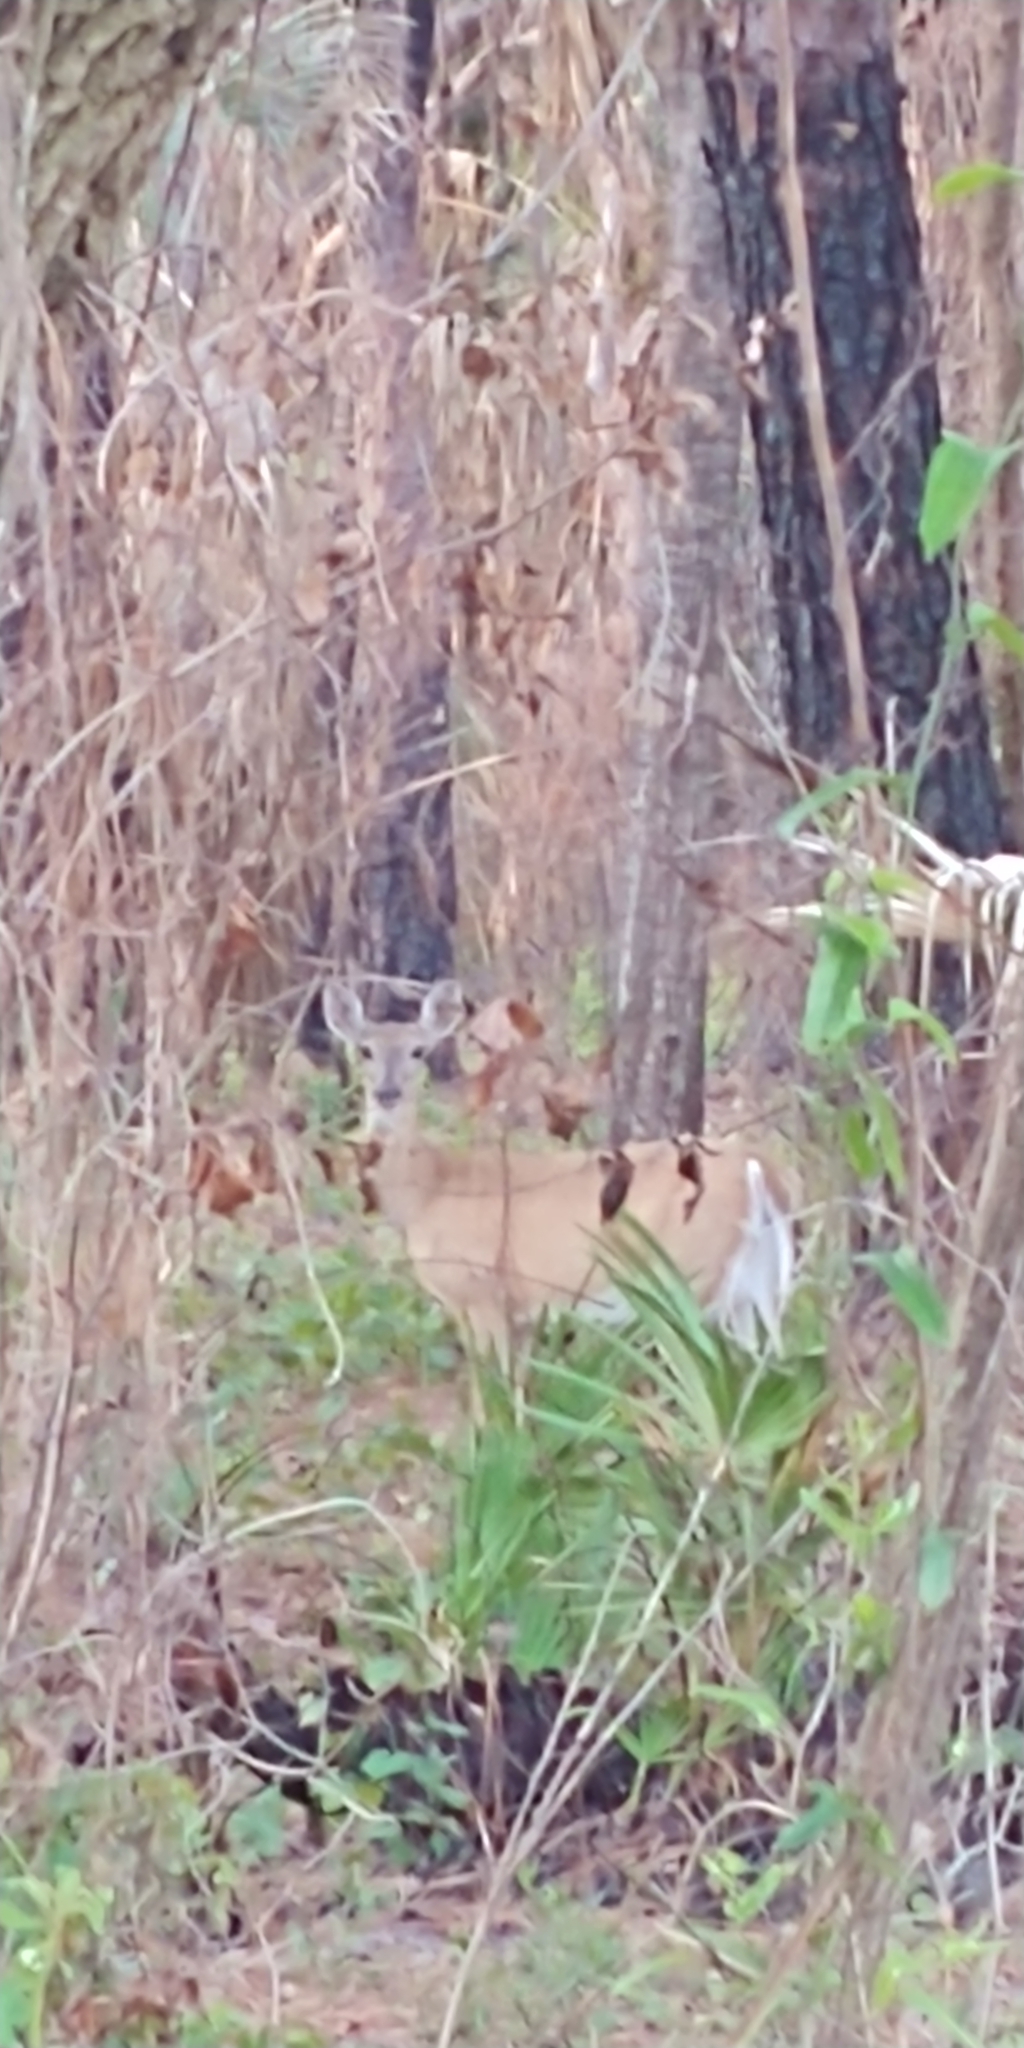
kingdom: Animalia
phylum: Chordata
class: Mammalia
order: Artiodactyla
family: Cervidae
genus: Odocoileus
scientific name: Odocoileus virginianus
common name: White-tailed deer
